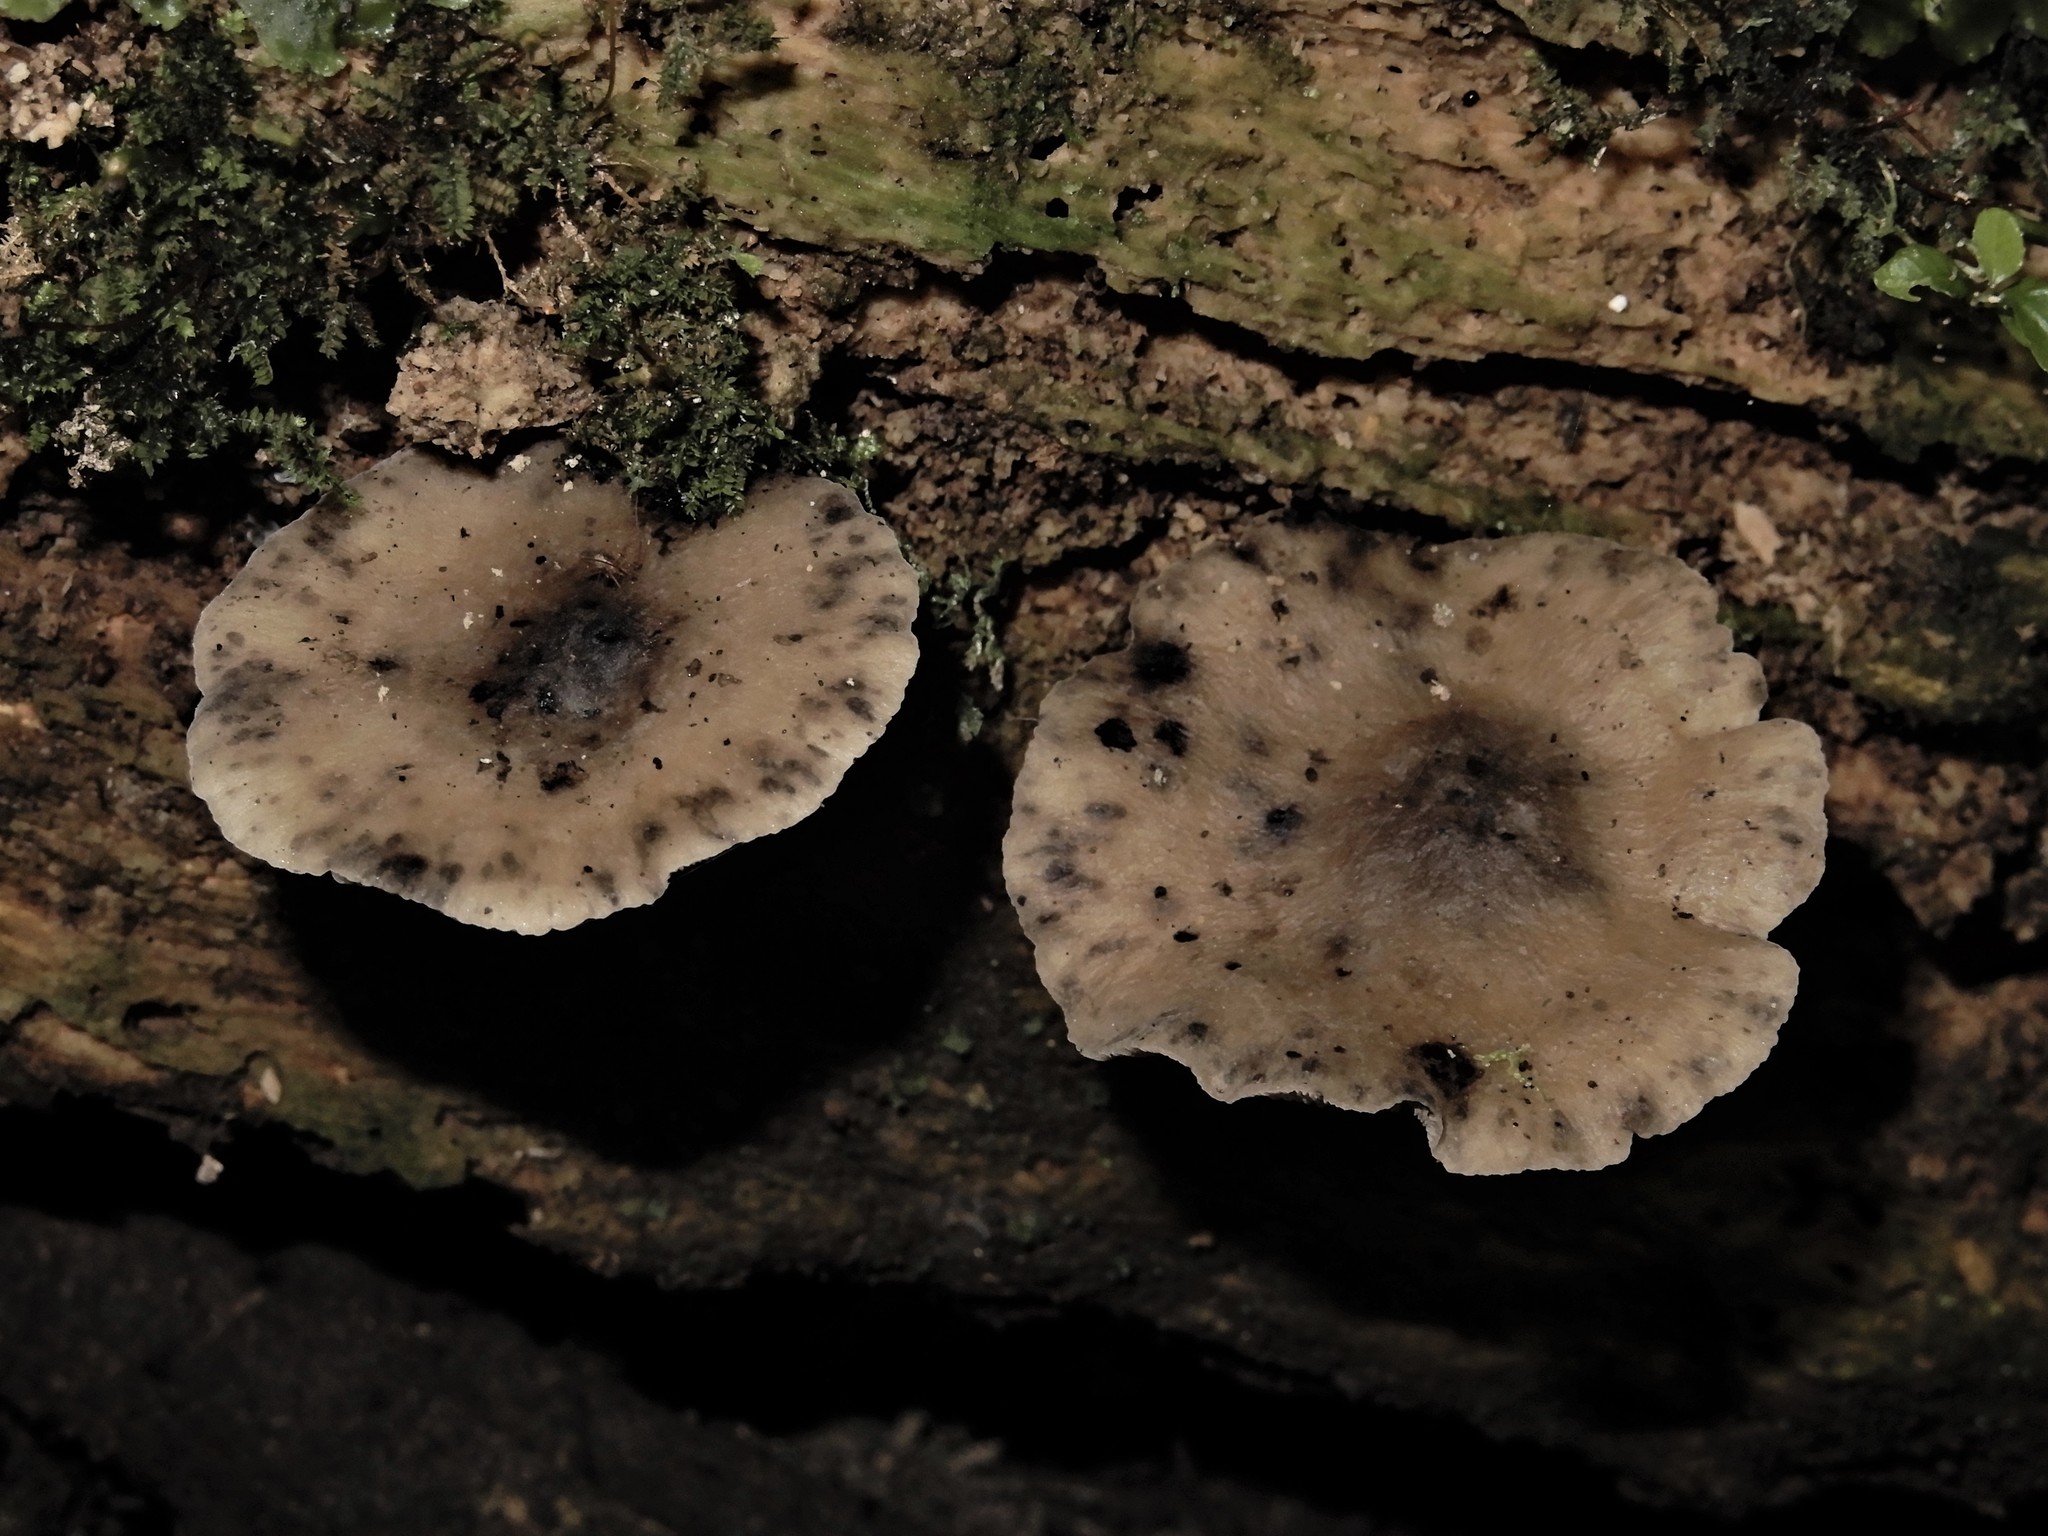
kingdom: Fungi
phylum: Basidiomycota
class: Agaricomycetes
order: Agaricales
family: Mycenaceae
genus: Hydropus
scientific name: Hydropus nigrita
